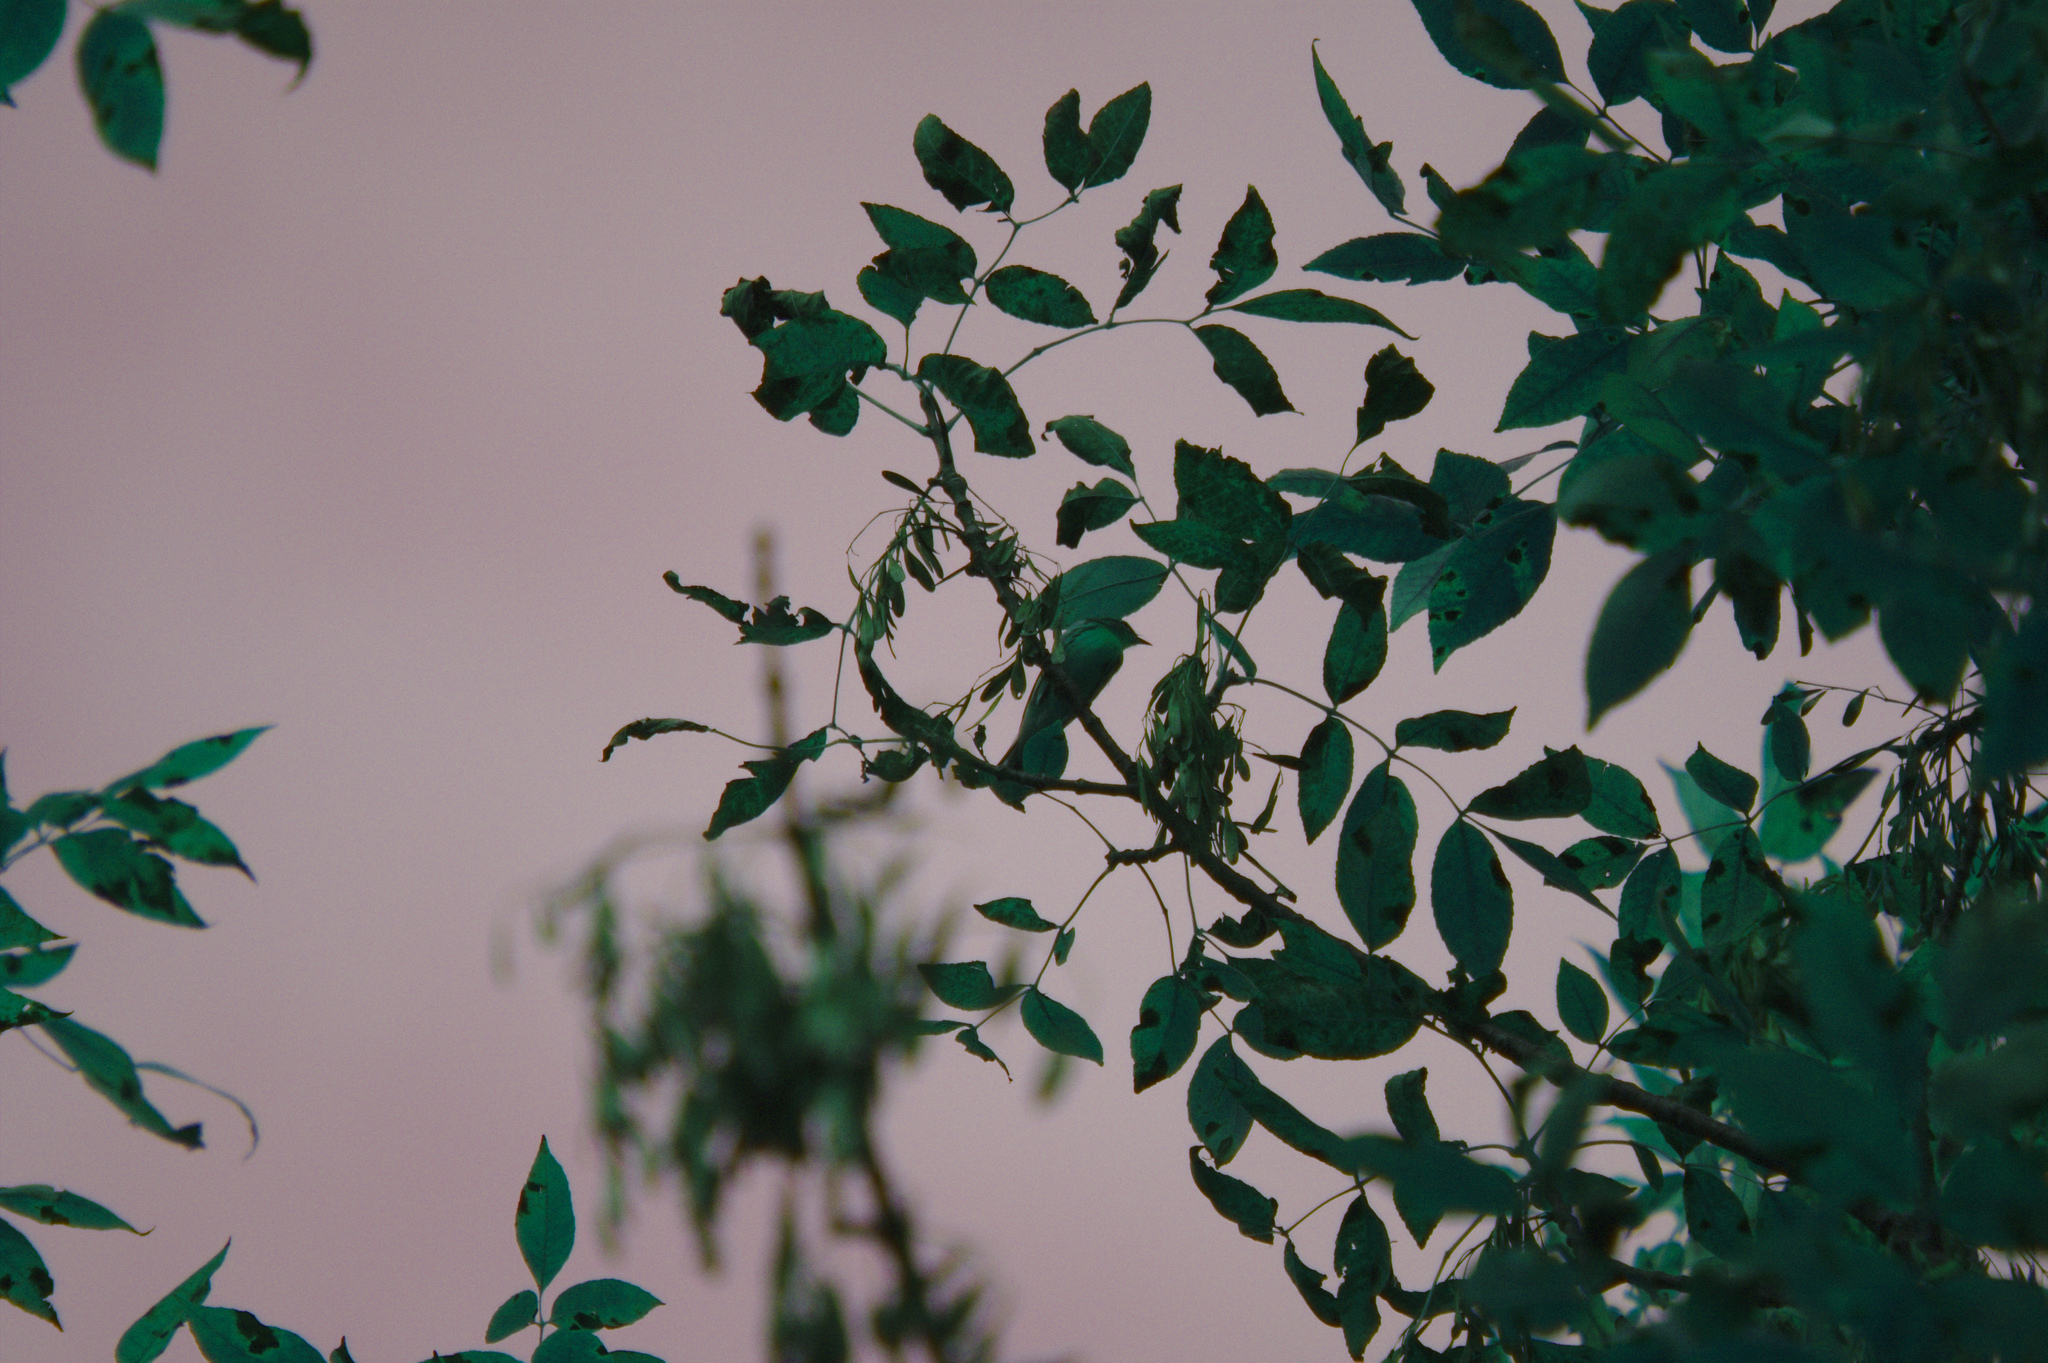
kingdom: Animalia
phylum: Chordata
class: Aves
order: Passeriformes
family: Parulidae
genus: Setophaga
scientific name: Setophaga fusca
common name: Blackburnian warbler
